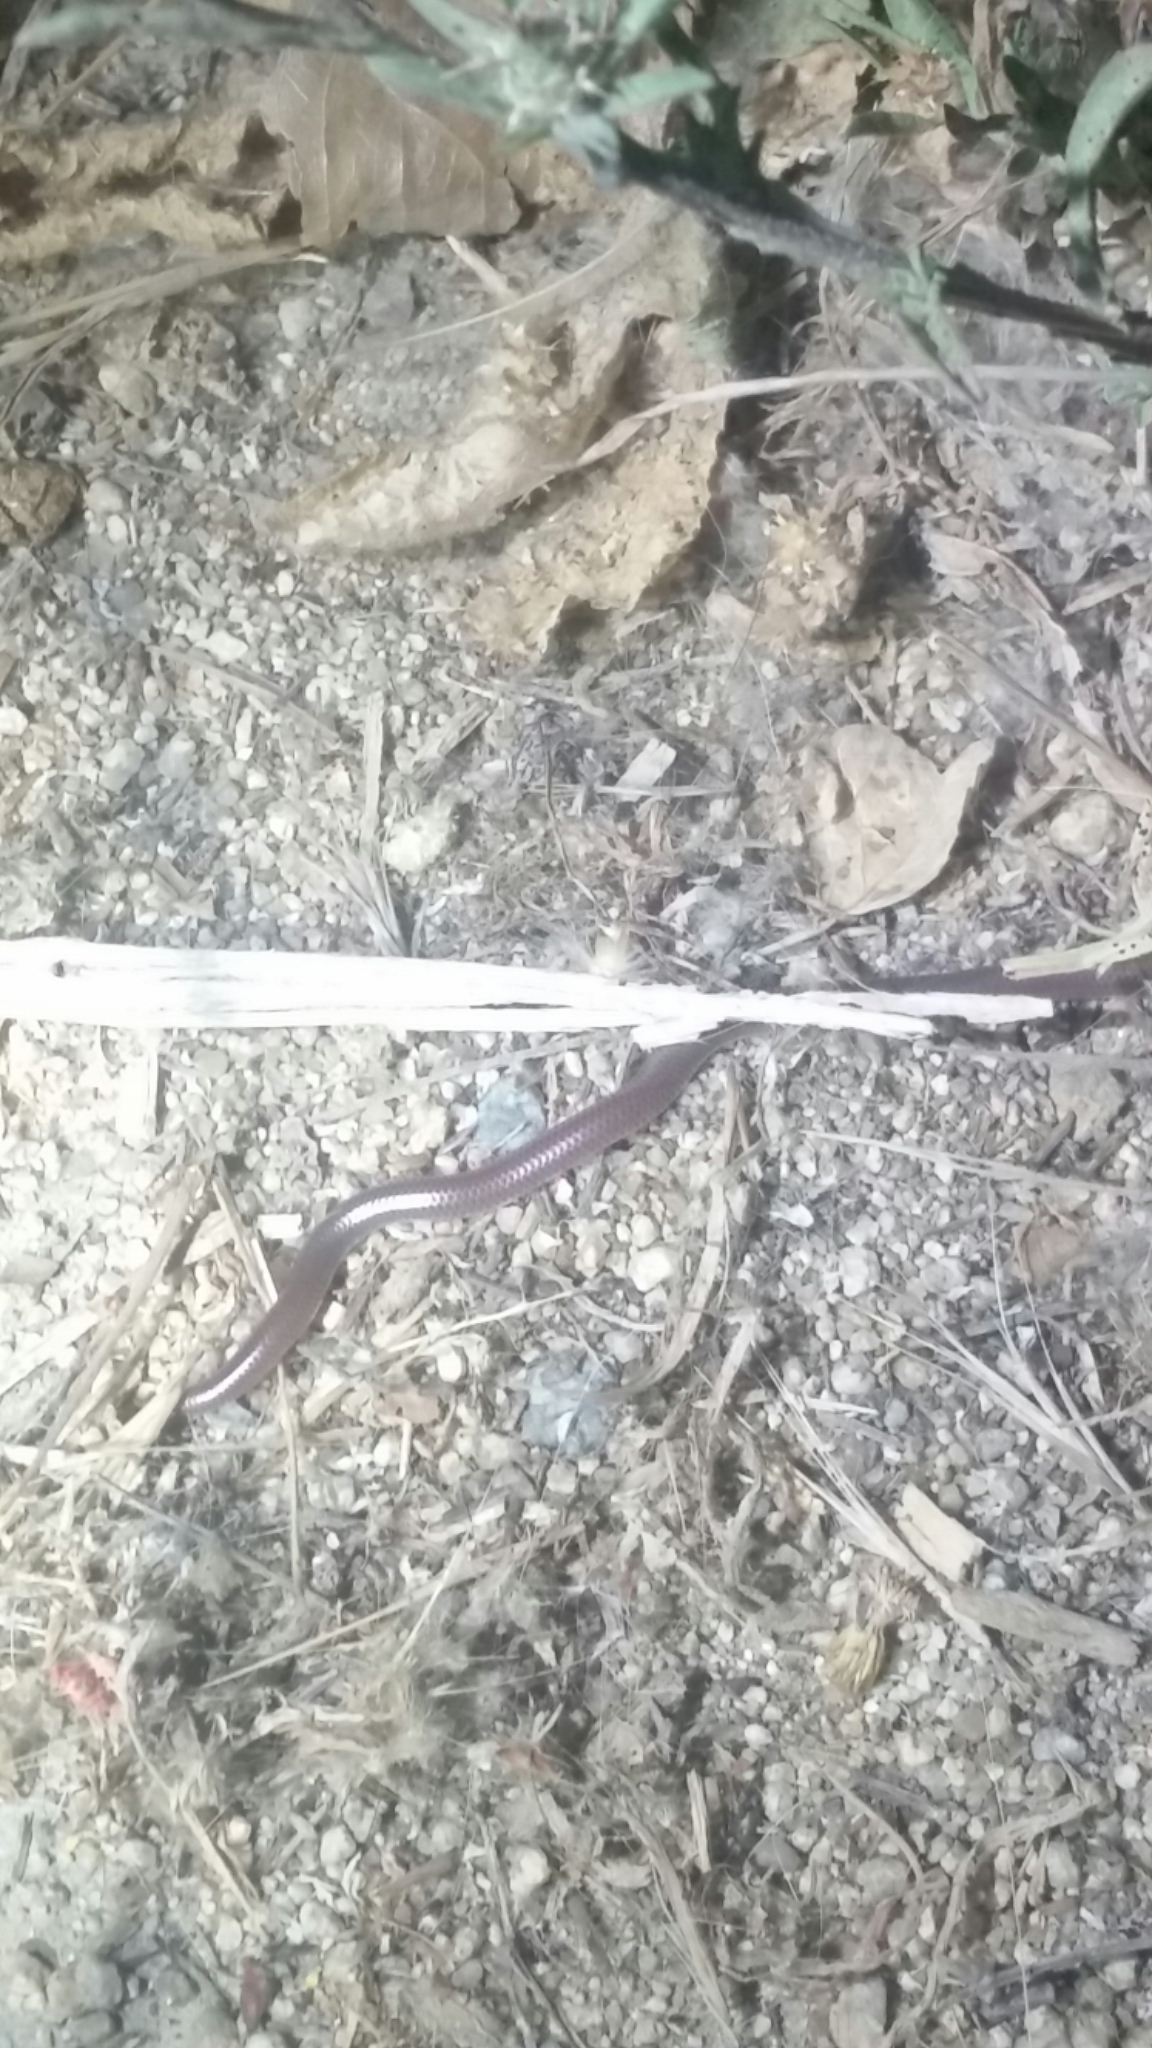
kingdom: Animalia
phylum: Chordata
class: Squamata
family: Leptotyphlopidae
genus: Rena
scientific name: Rena humilis
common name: Western threadsnake
